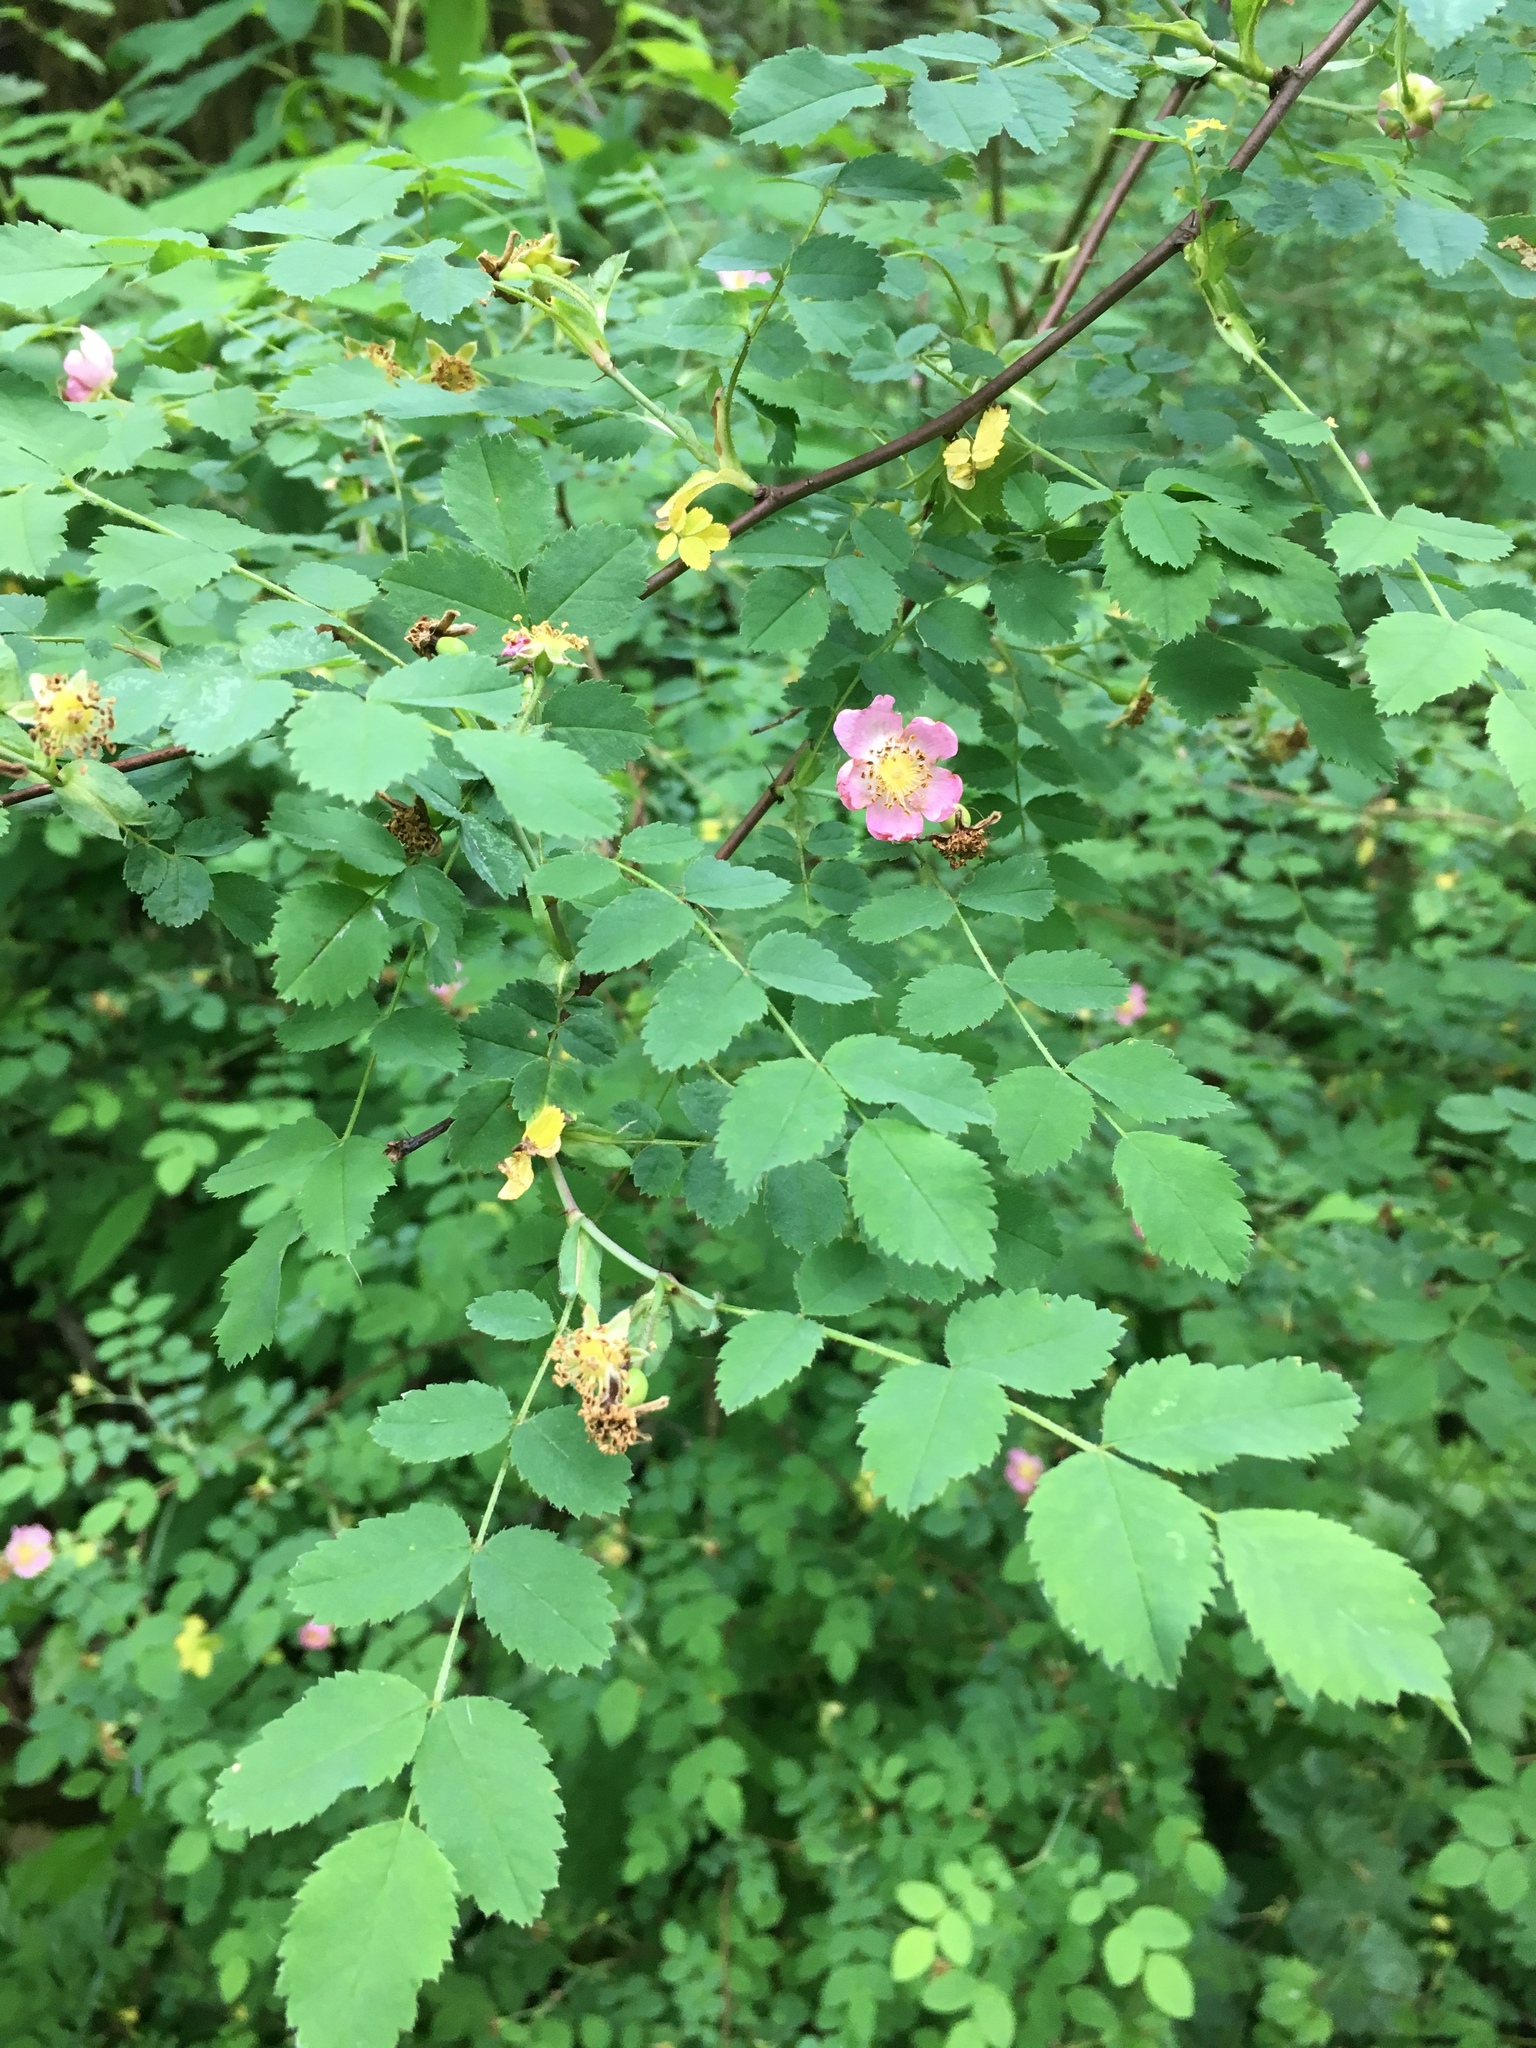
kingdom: Plantae
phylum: Tracheophyta
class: Magnoliopsida
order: Rosales
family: Rosaceae
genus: Rosa
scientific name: Rosa nutkana
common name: Nootka rose
